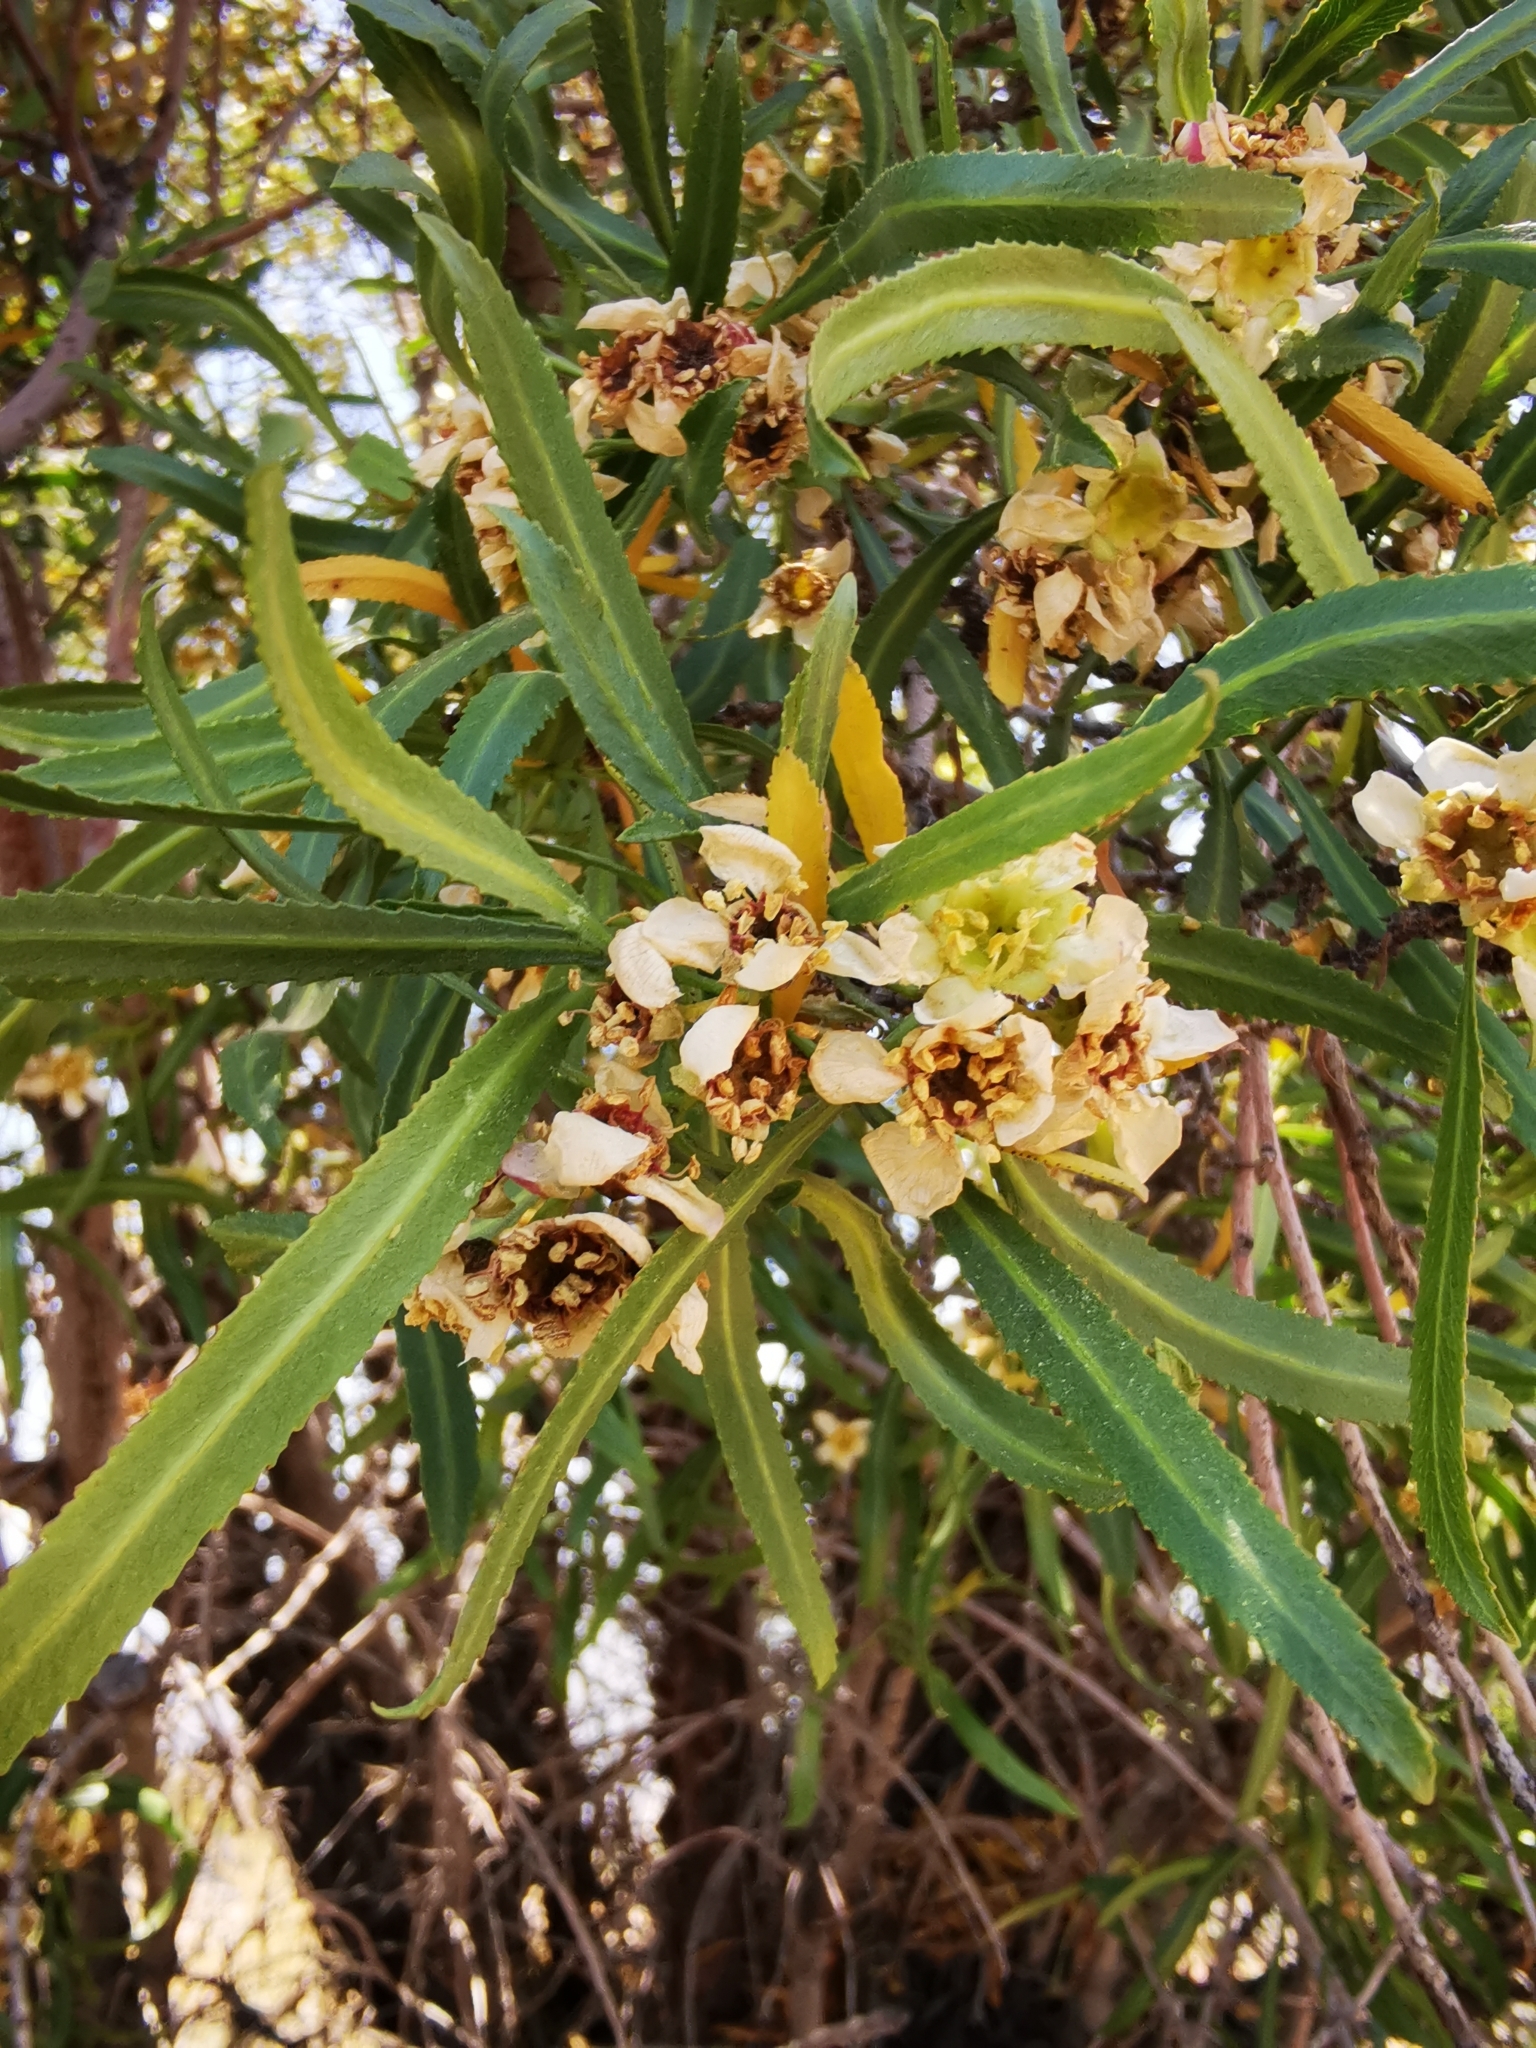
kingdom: Plantae
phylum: Tracheophyta
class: Magnoliopsida
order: Rosales
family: Rosaceae
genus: Kageneckia
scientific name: Kageneckia angustifolia
